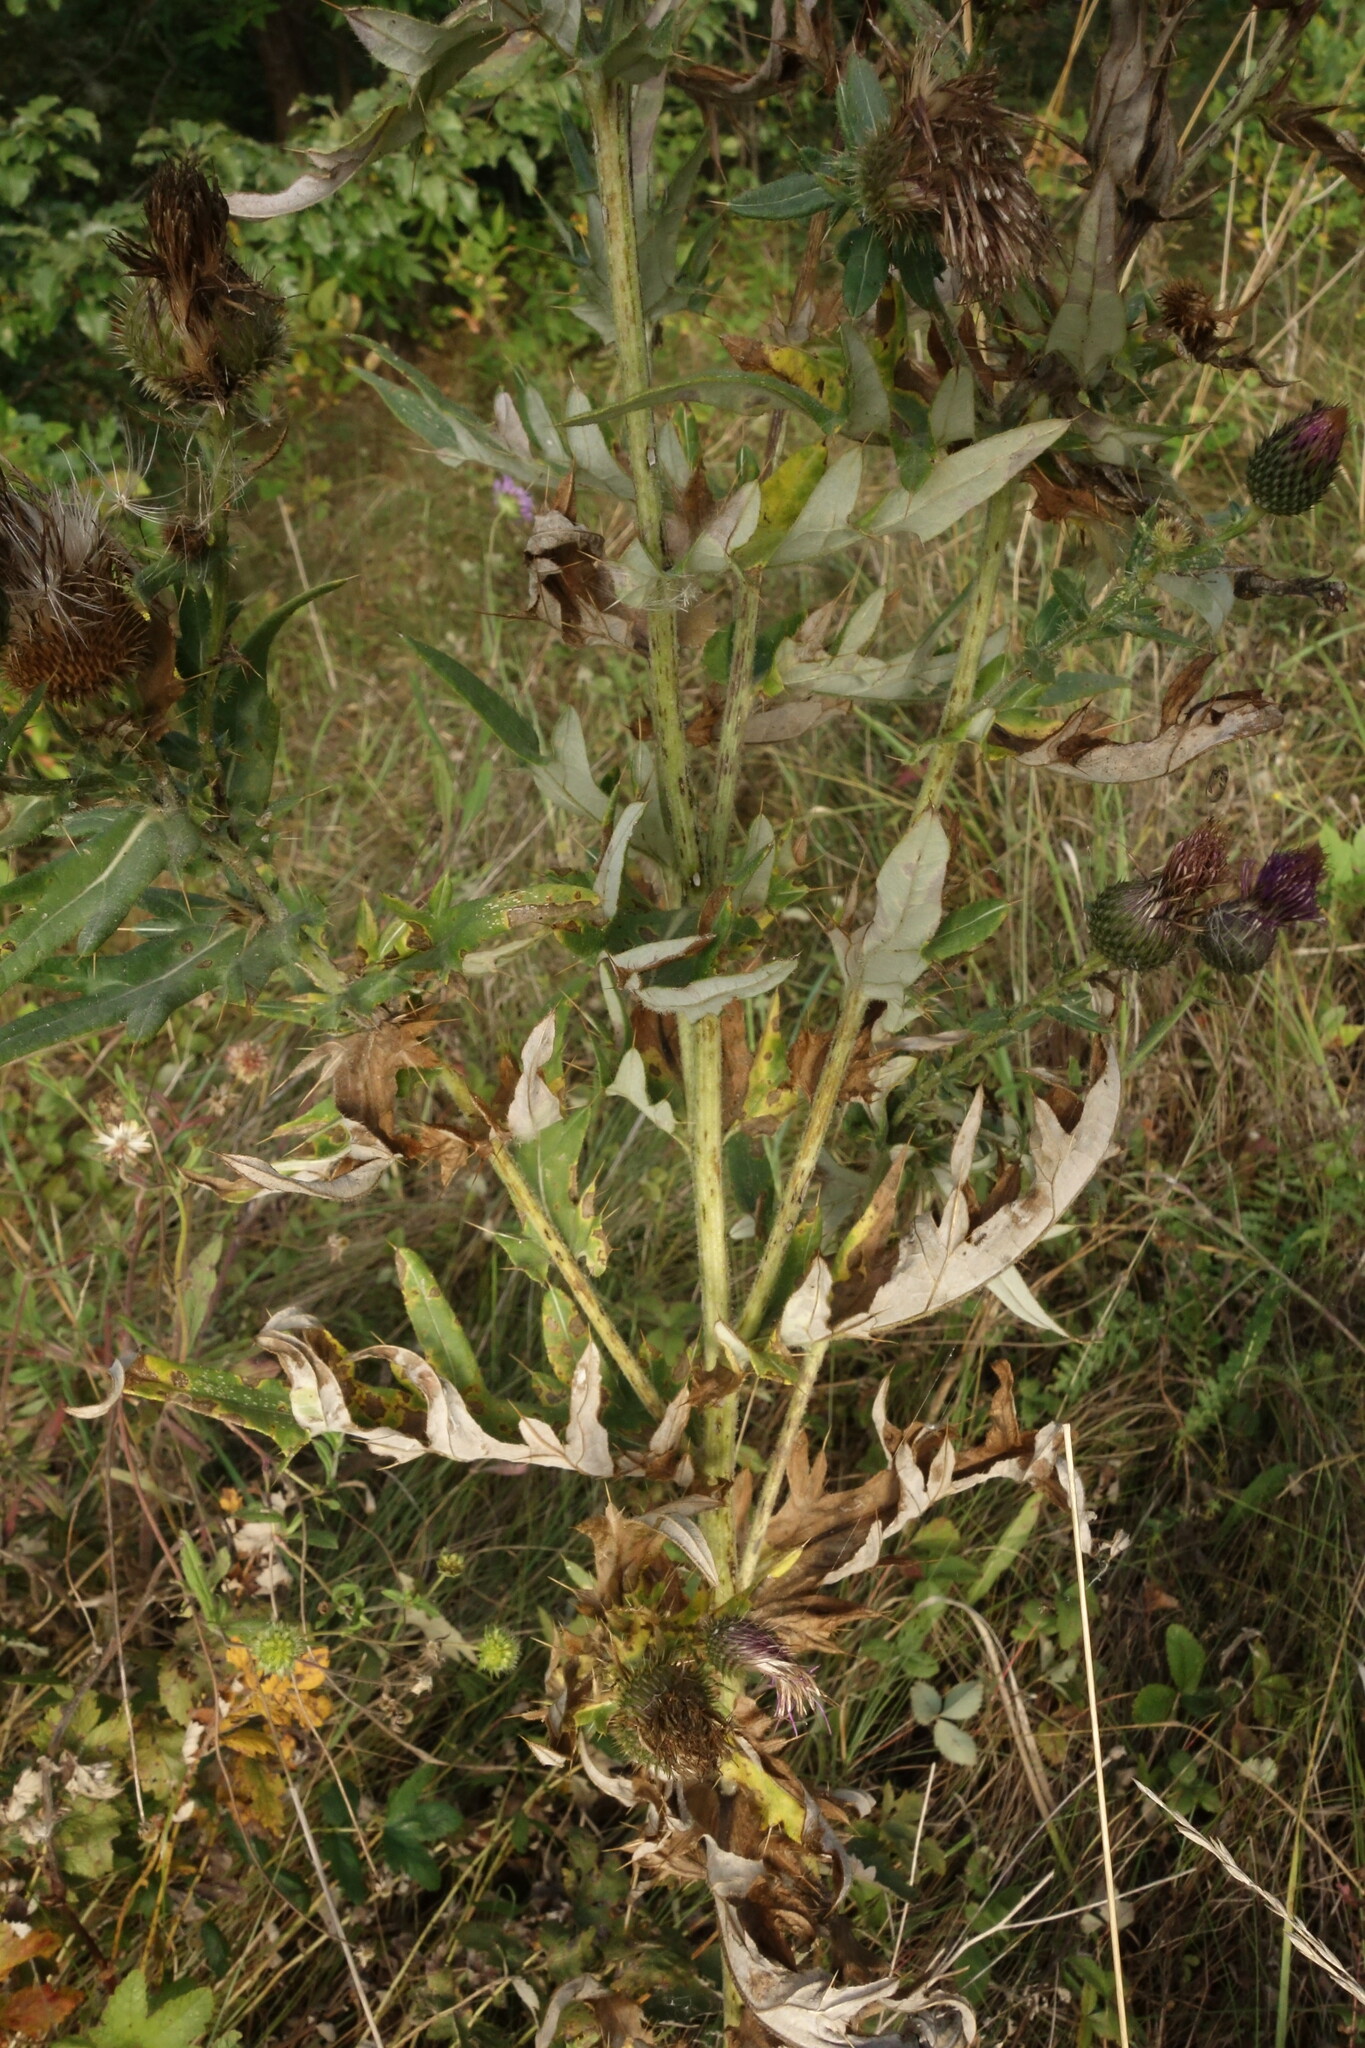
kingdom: Plantae
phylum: Tracheophyta
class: Magnoliopsida
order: Asterales
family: Asteraceae
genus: Cirsium
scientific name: Cirsium serrulatum
